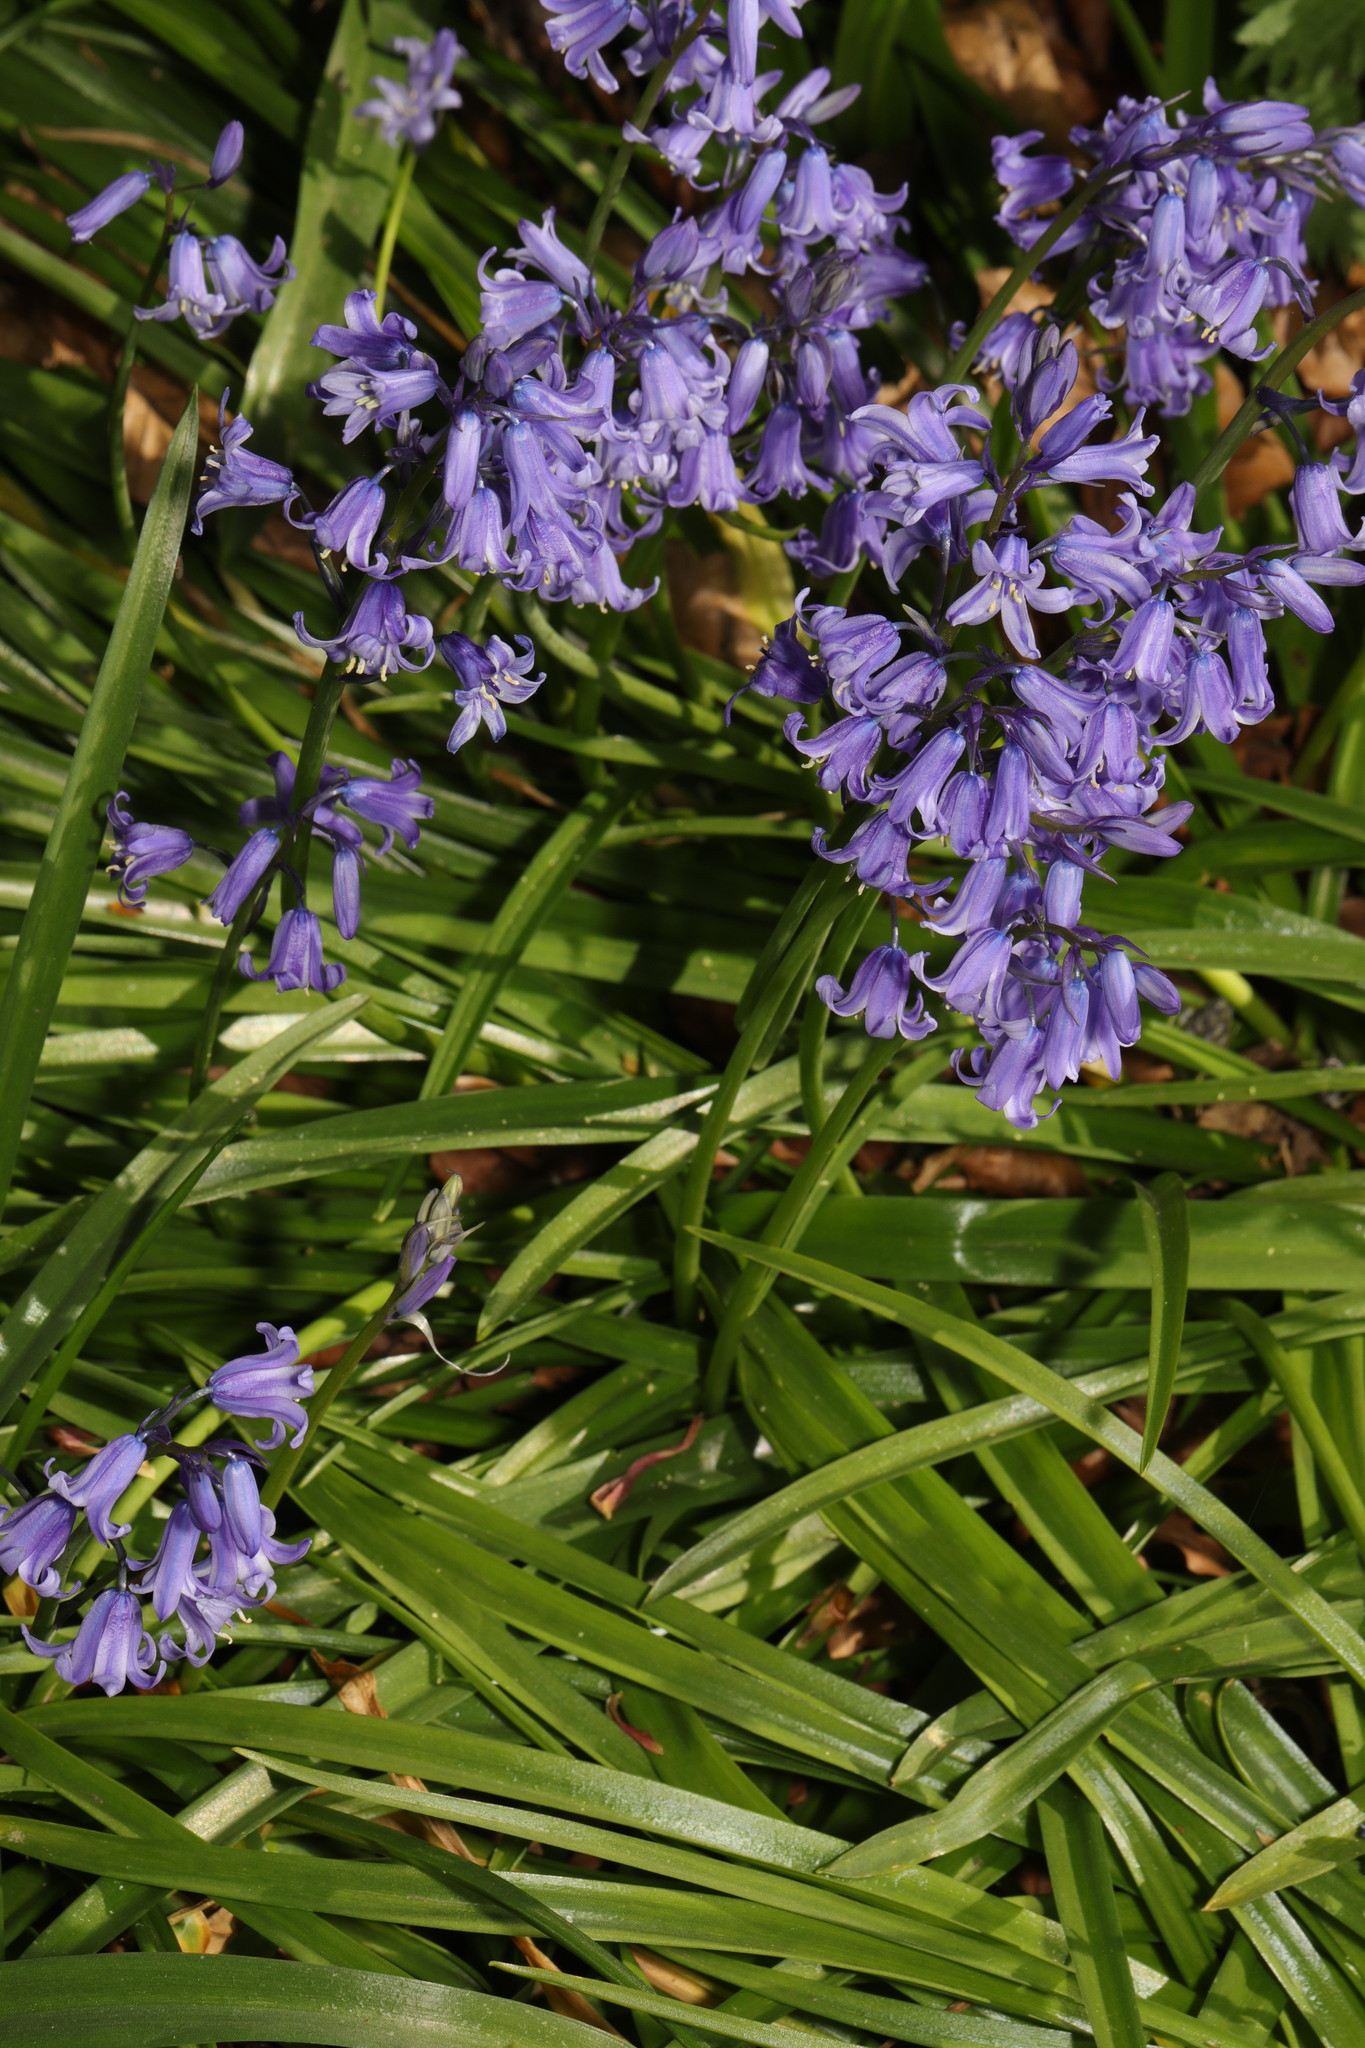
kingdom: Plantae
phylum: Tracheophyta
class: Liliopsida
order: Asparagales
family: Asparagaceae
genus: Hyacinthoides
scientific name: Hyacinthoides hispanica
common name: Spanish bluebell
